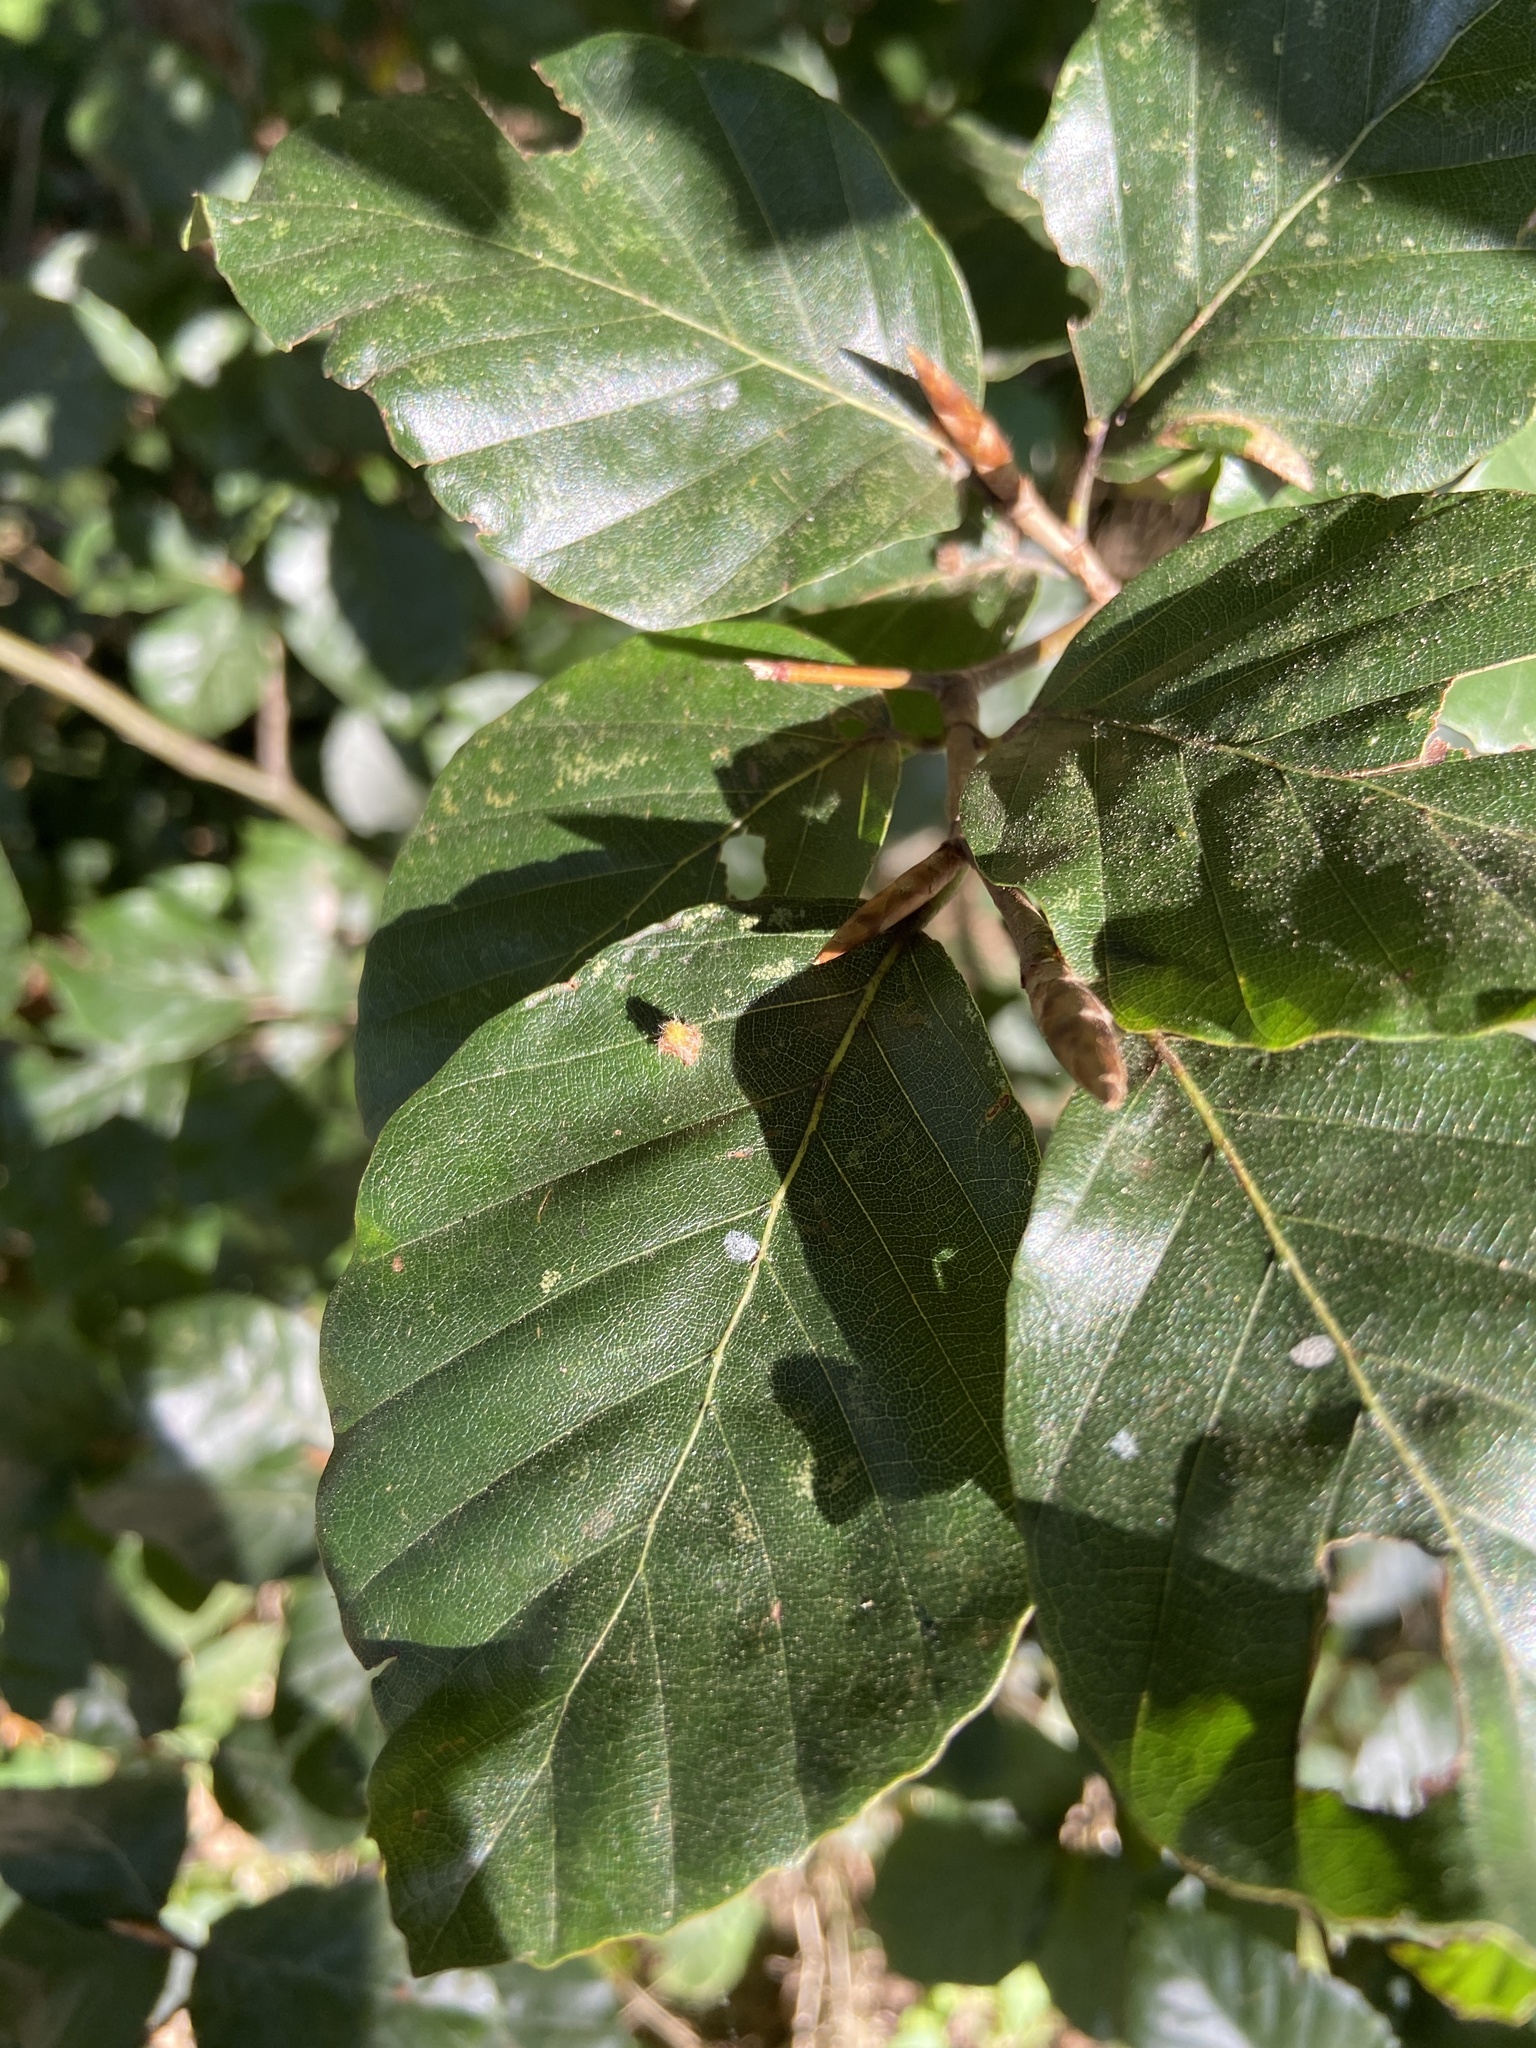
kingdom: Animalia
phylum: Arthropoda
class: Insecta
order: Diptera
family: Cecidomyiidae
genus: Hartigiola
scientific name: Hartigiola annulipes
